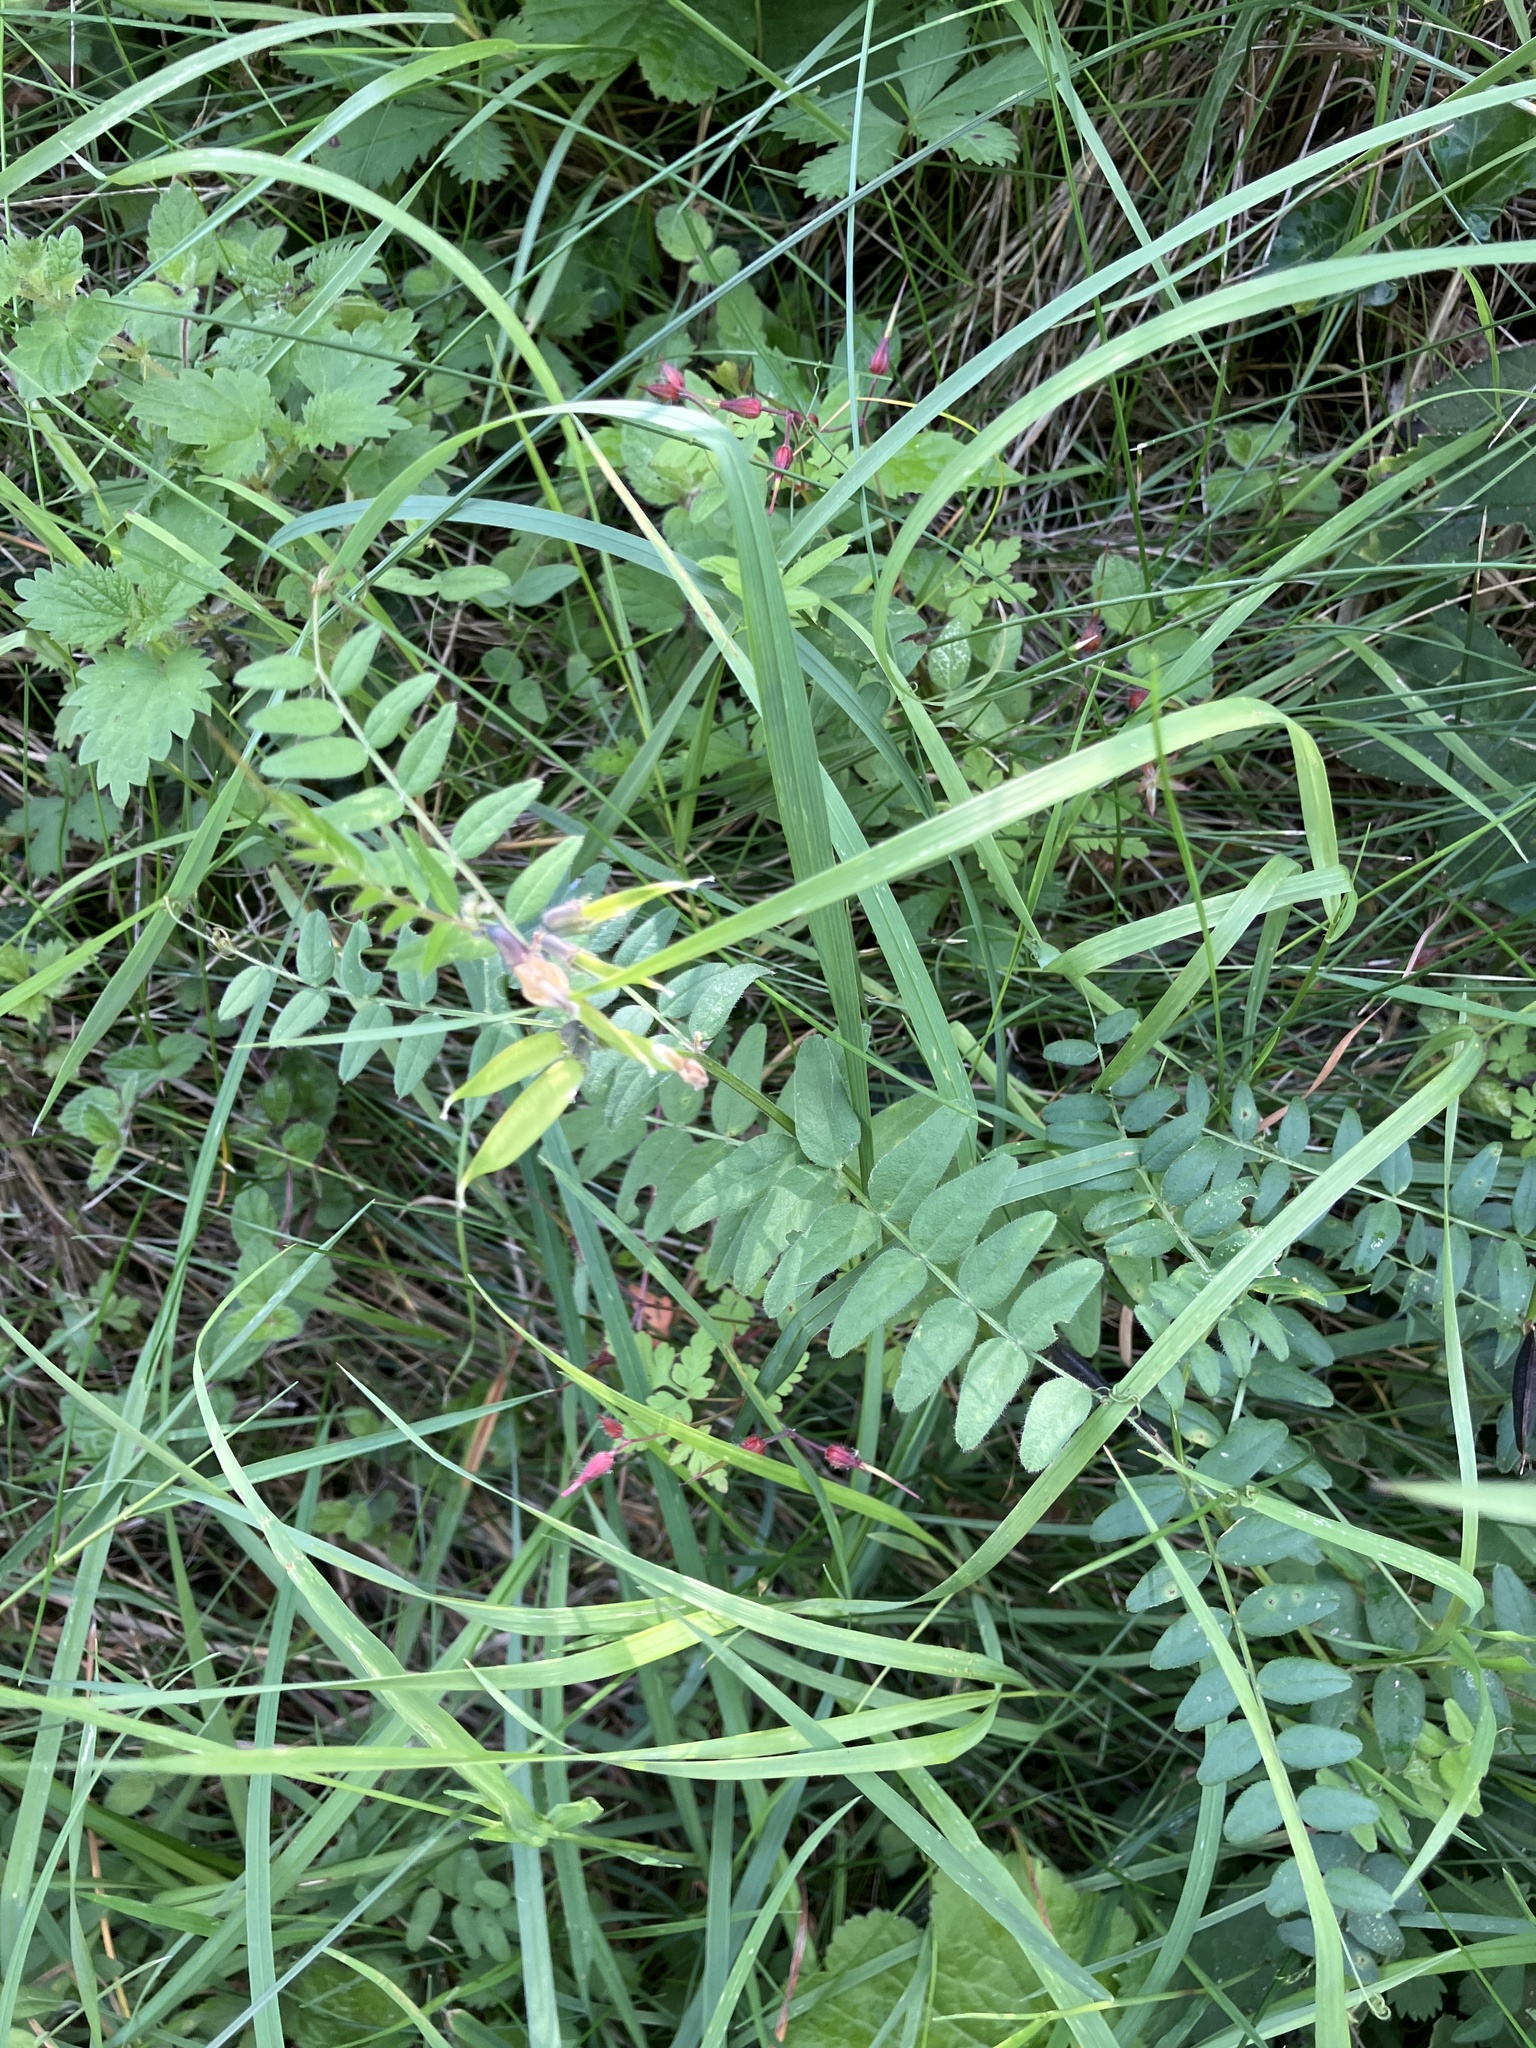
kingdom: Plantae
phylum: Tracheophyta
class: Magnoliopsida
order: Fabales
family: Fabaceae
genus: Vicia
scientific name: Vicia sepium
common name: Bush vetch
